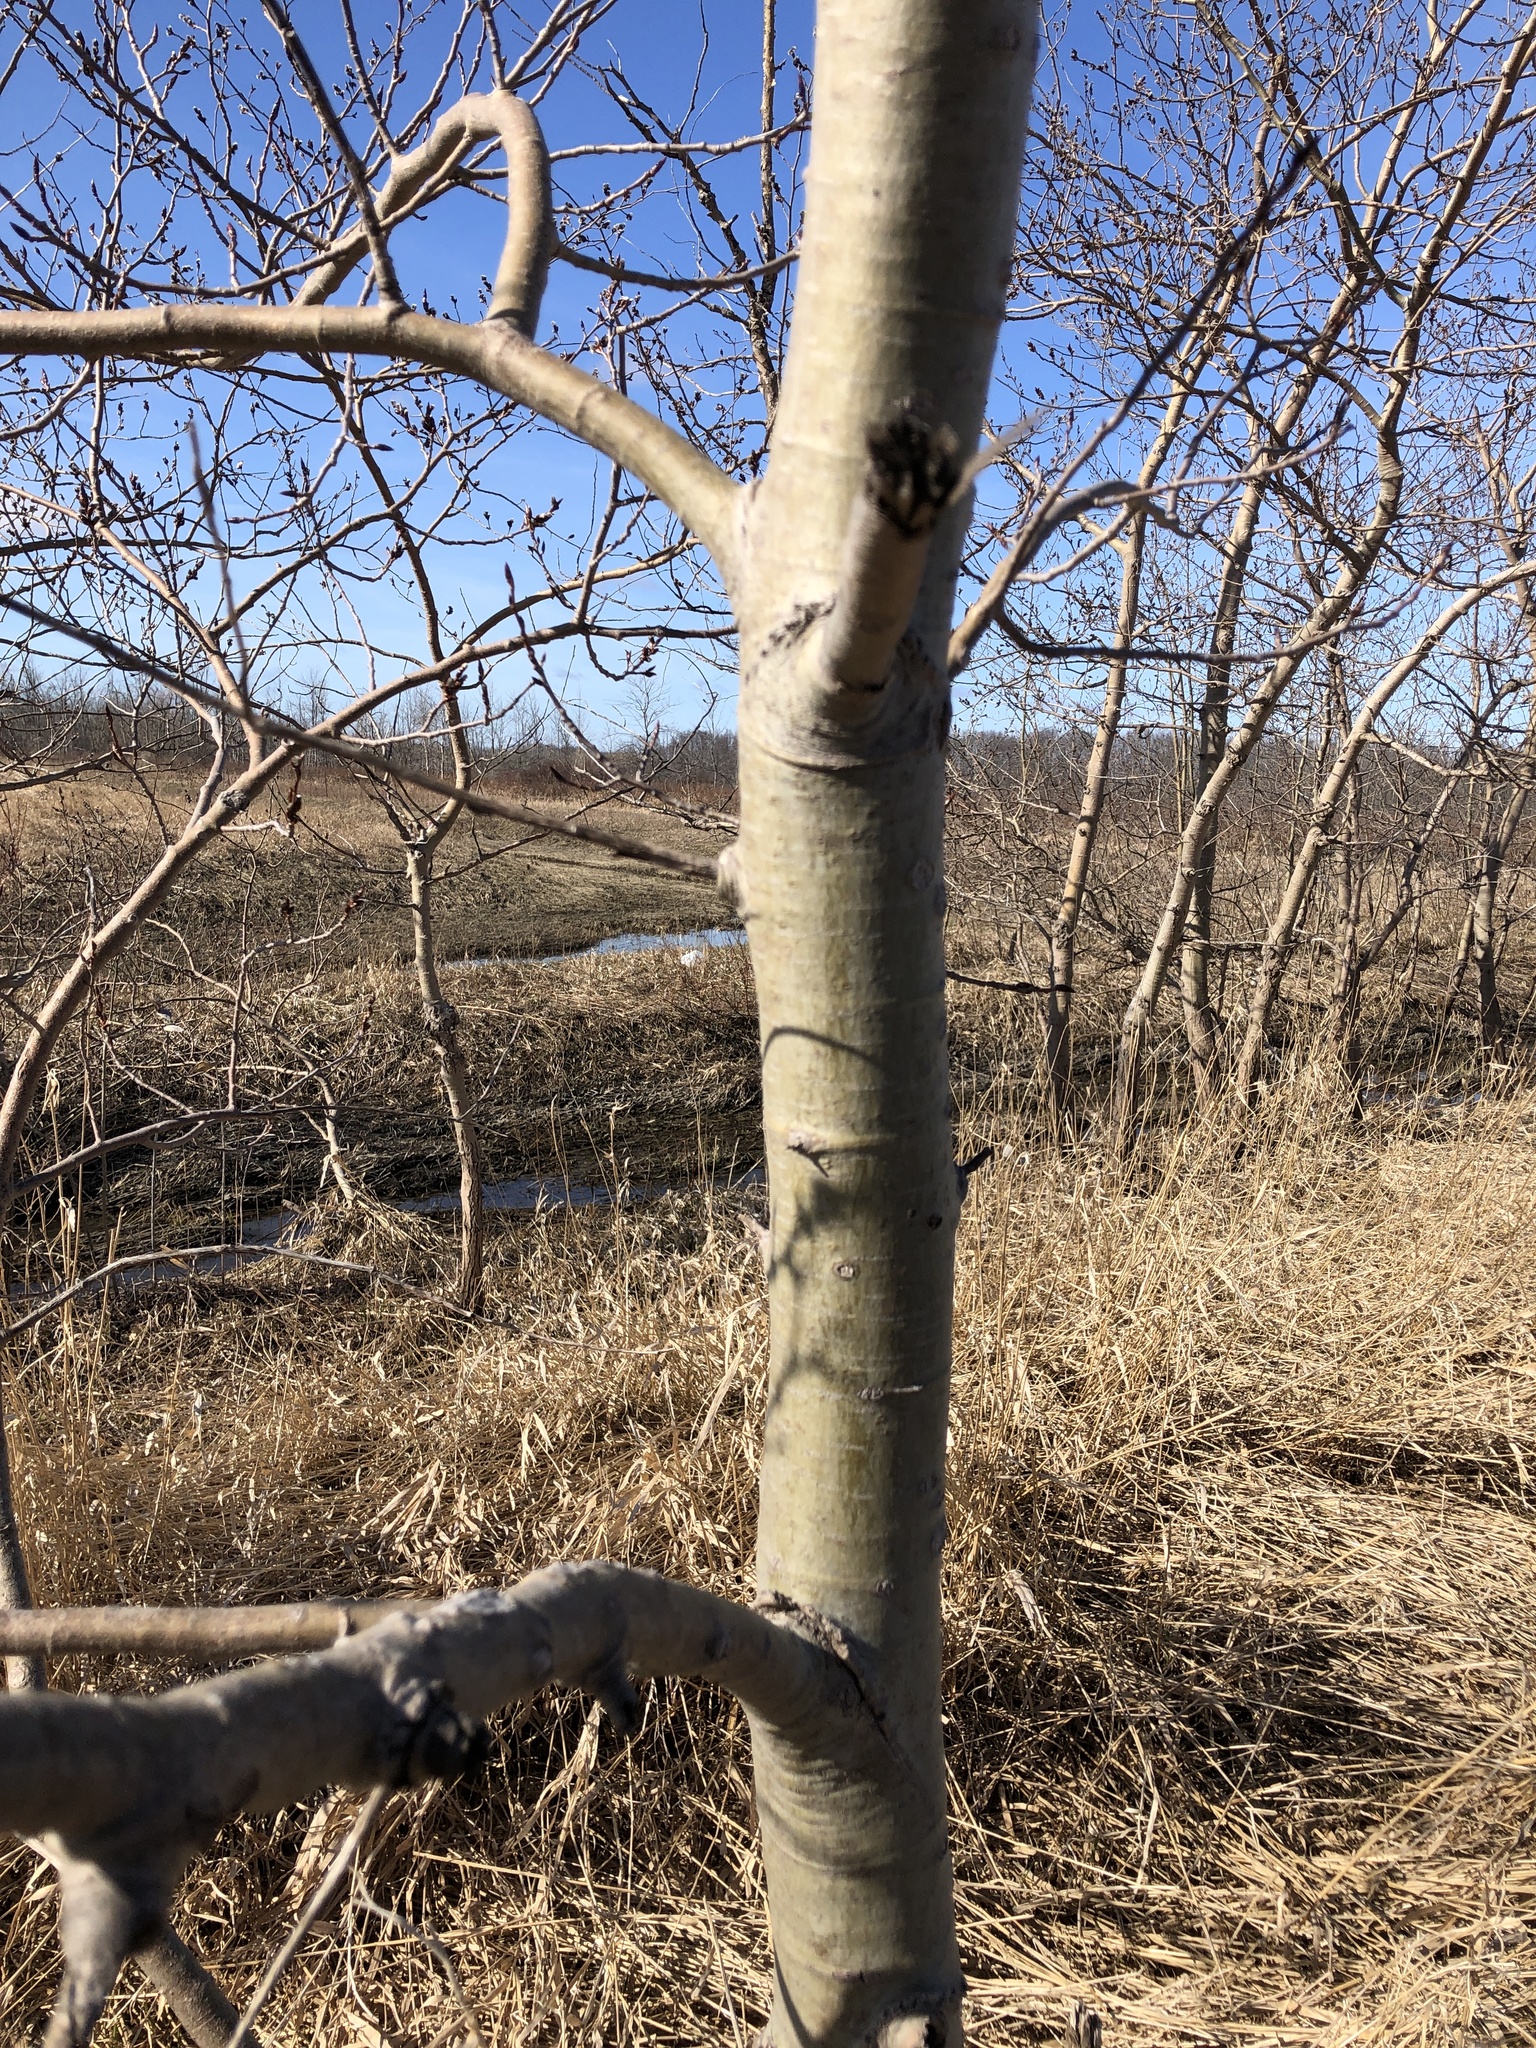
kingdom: Plantae
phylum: Tracheophyta
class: Magnoliopsida
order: Malpighiales
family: Salicaceae
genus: Populus
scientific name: Populus tremuloides
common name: Quaking aspen
